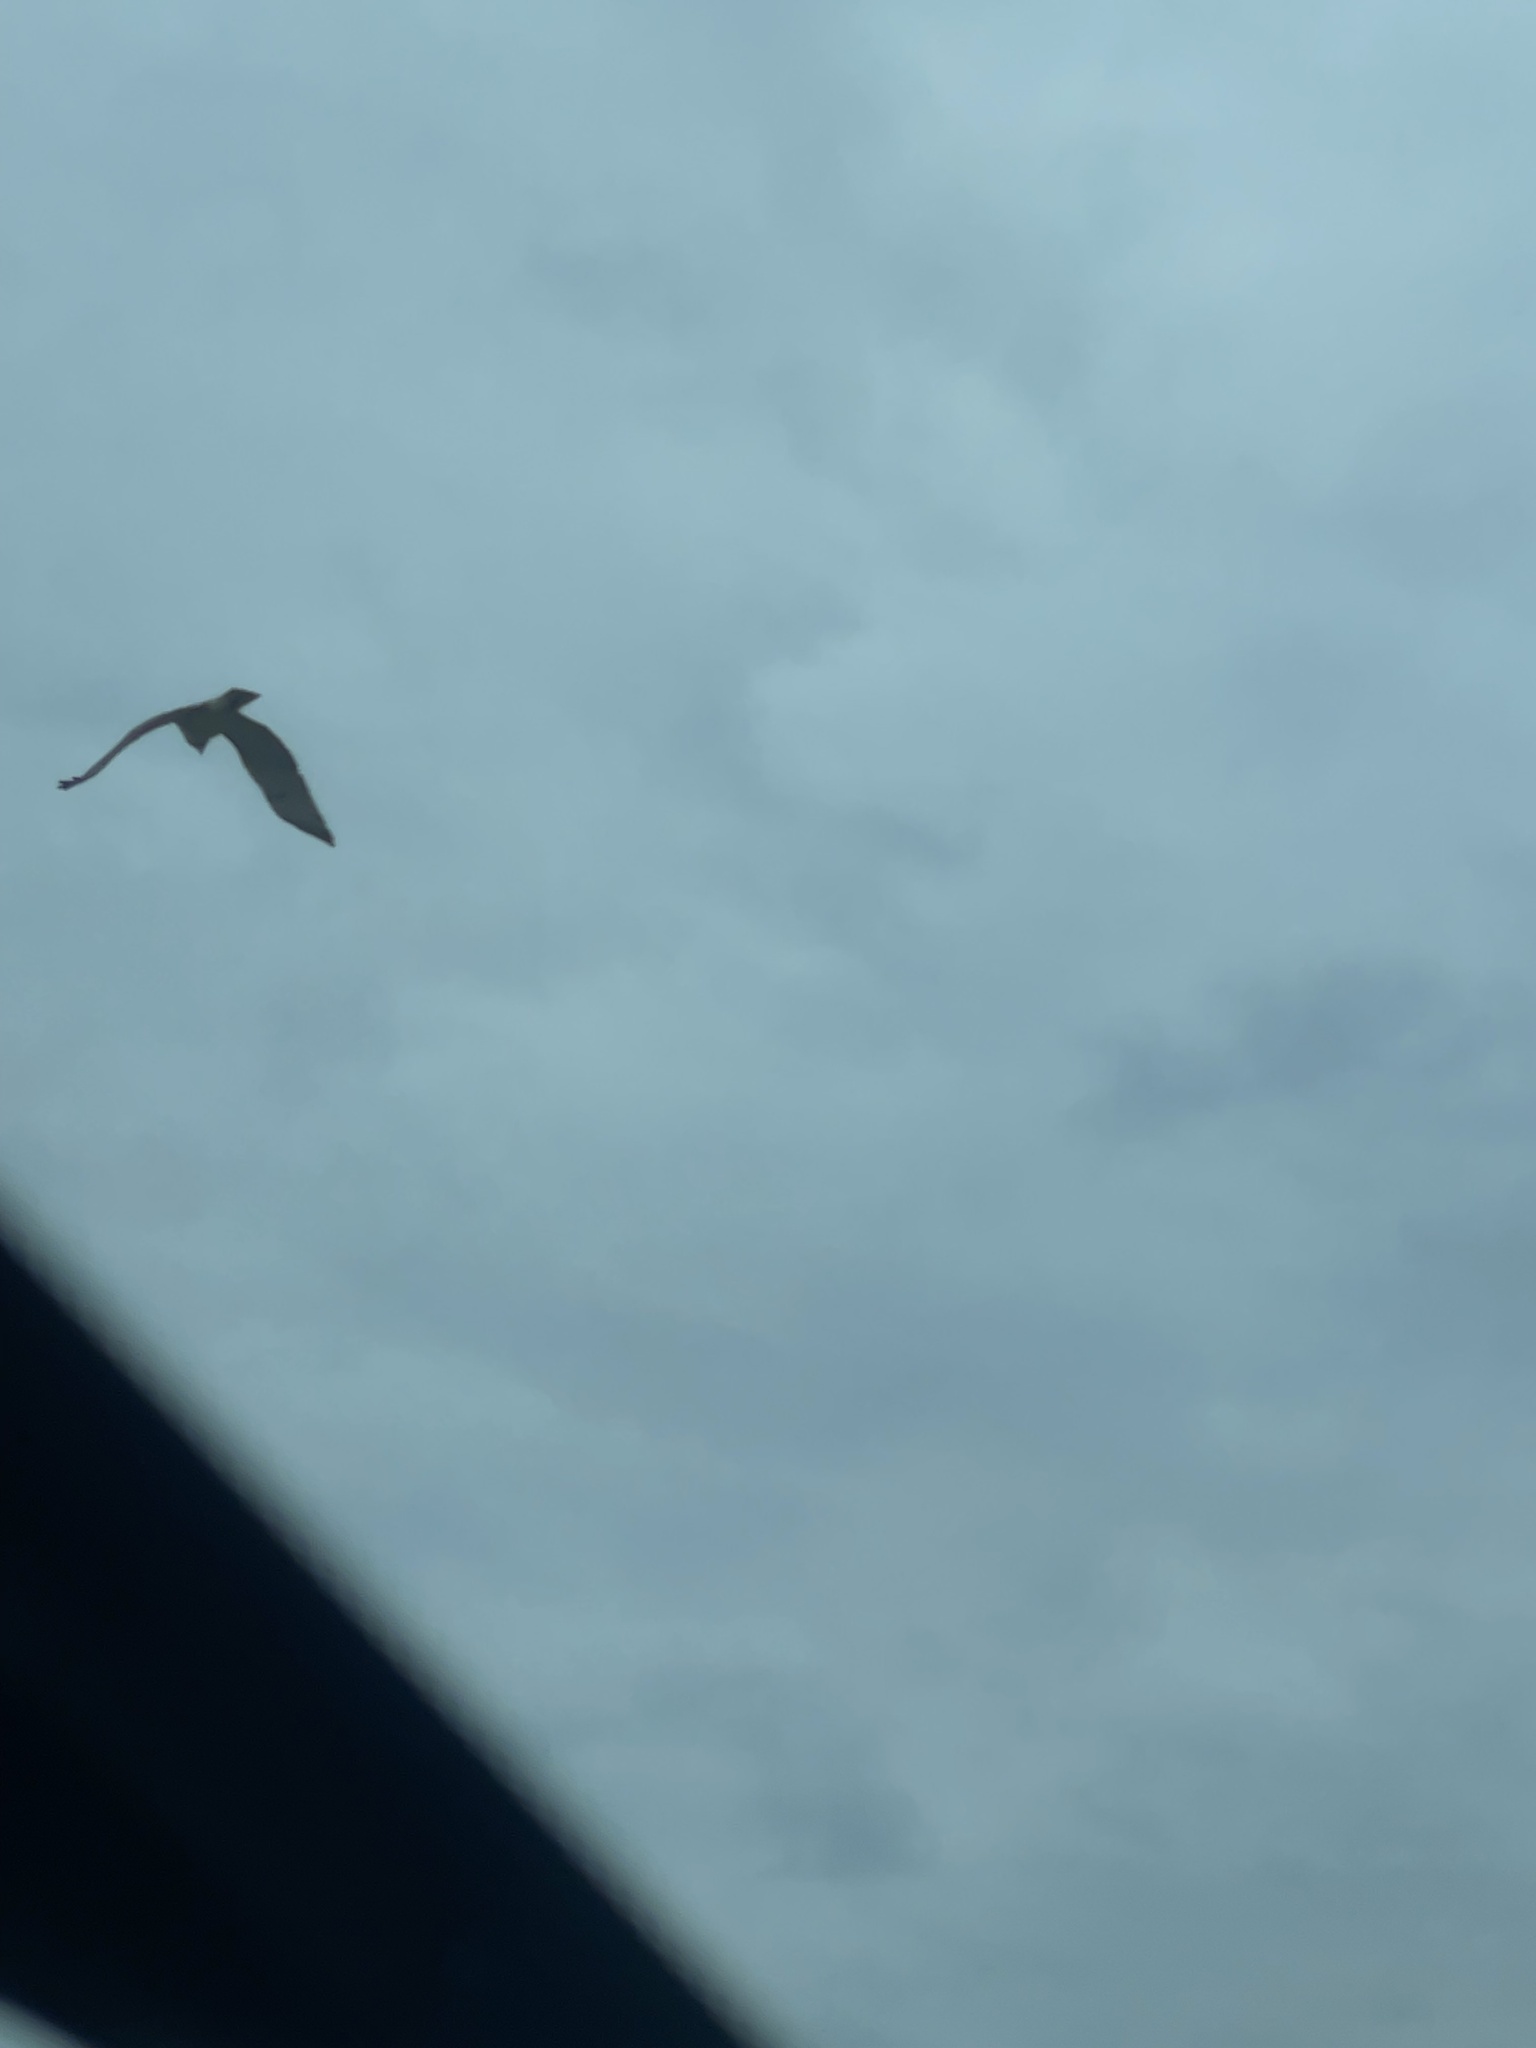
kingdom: Animalia
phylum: Chordata
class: Aves
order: Accipitriformes
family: Accipitridae
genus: Buteo
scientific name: Buteo jamaicensis
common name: Red-tailed hawk
